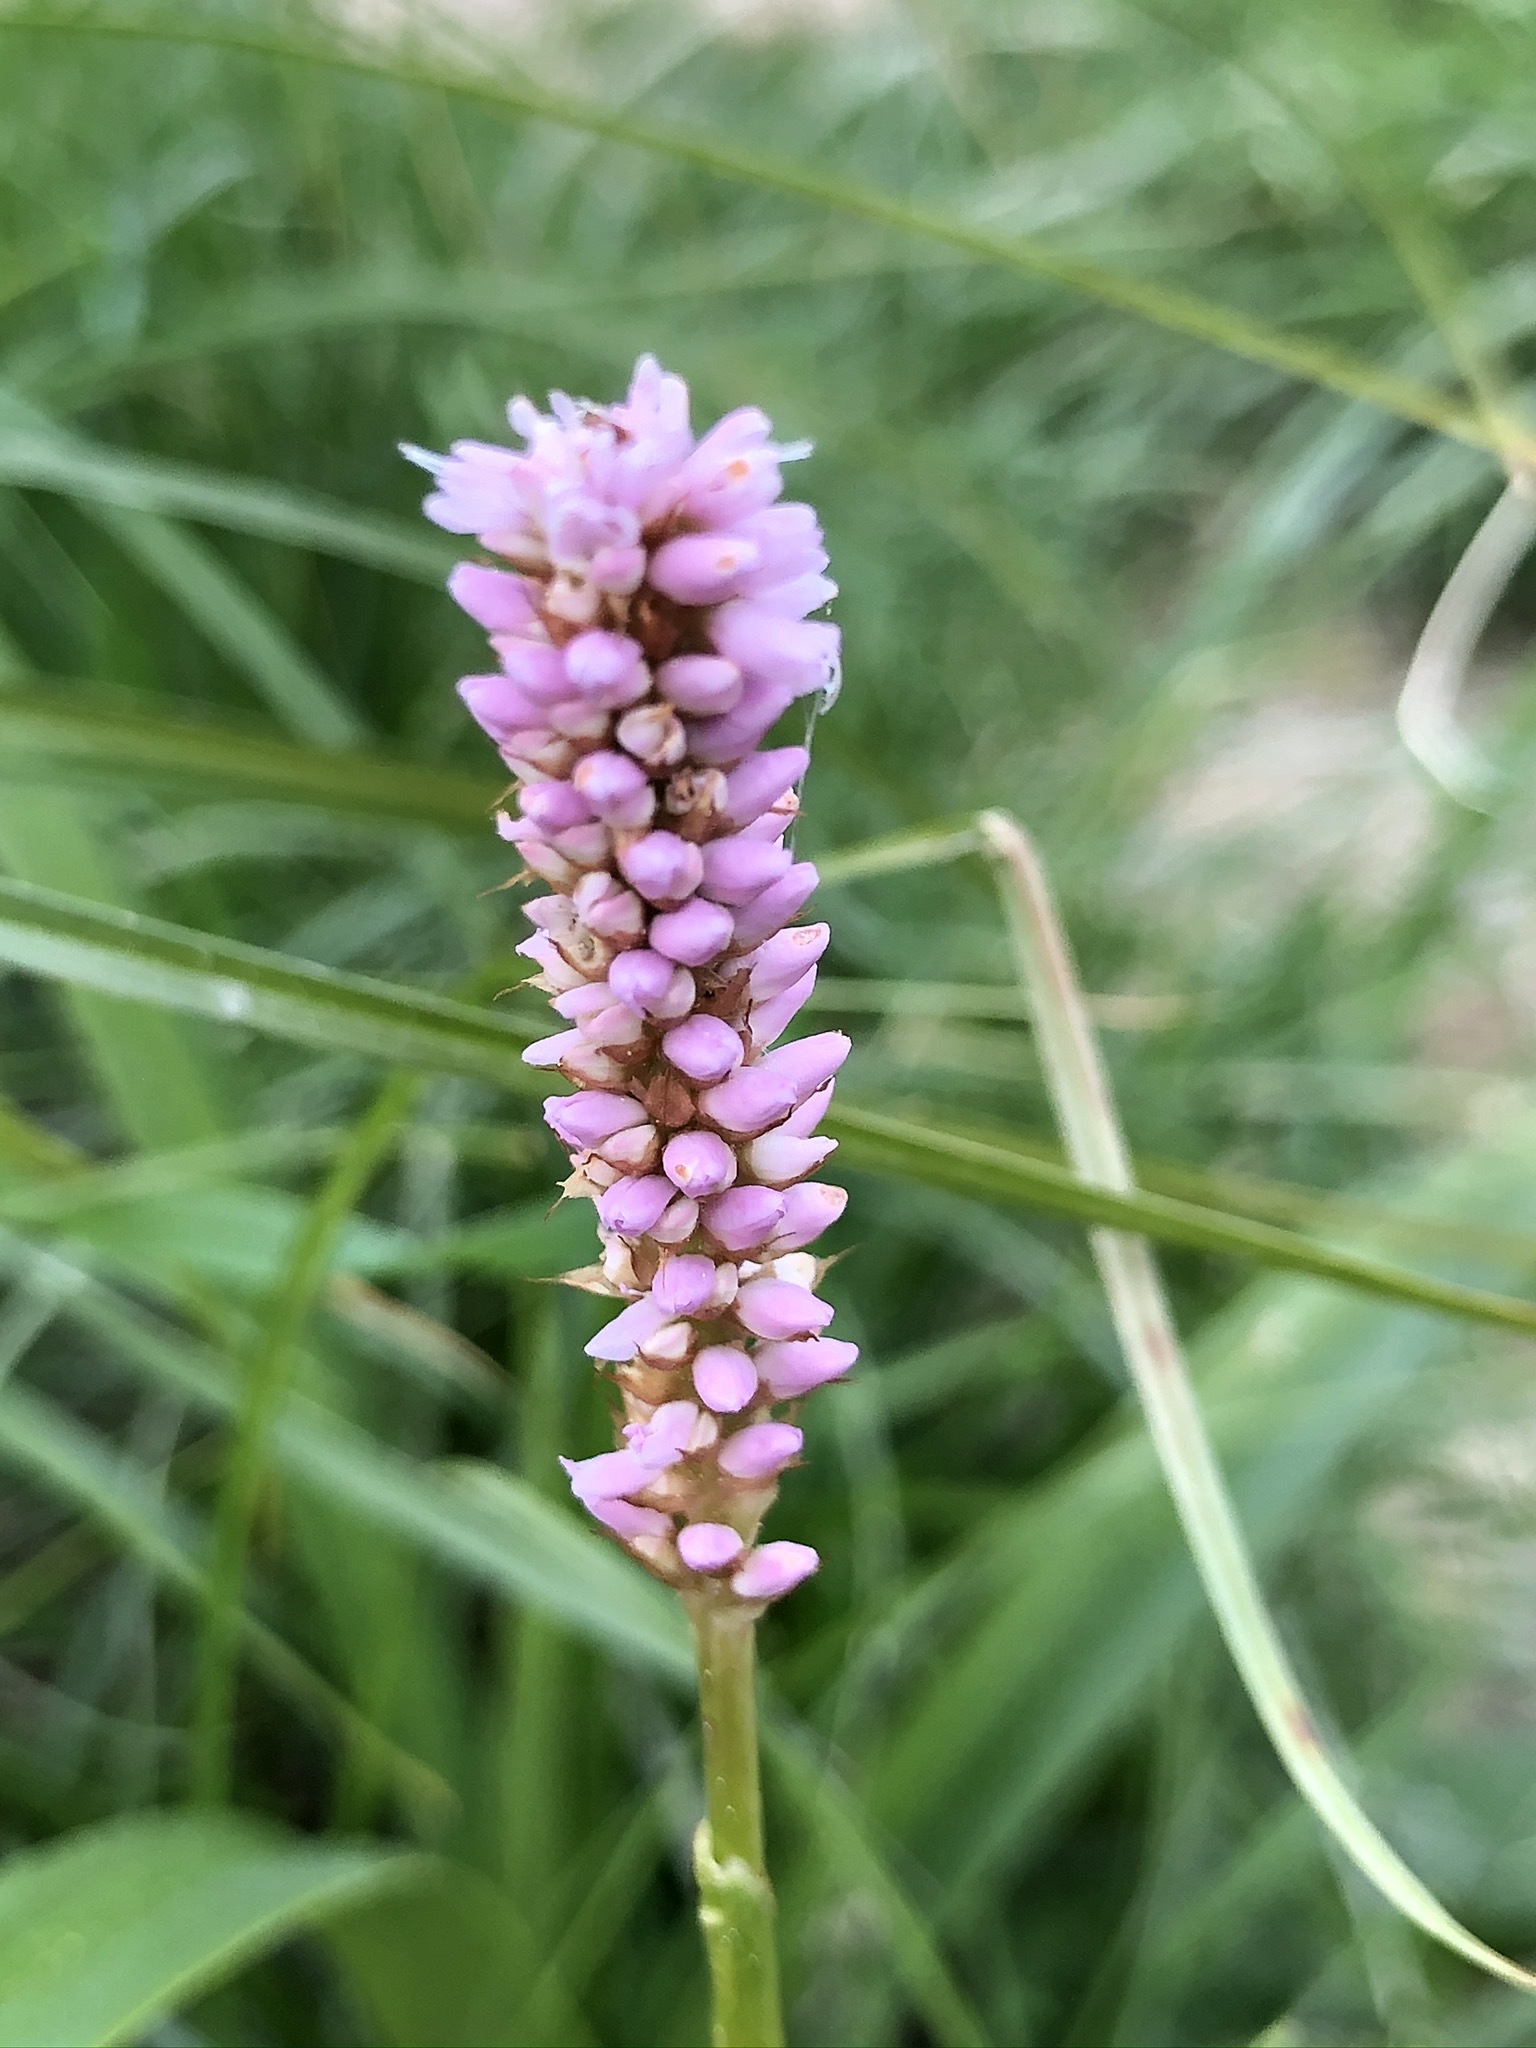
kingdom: Plantae
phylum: Tracheophyta
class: Magnoliopsida
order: Caryophyllales
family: Polygonaceae
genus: Bistorta
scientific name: Bistorta officinalis
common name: Common bistort
